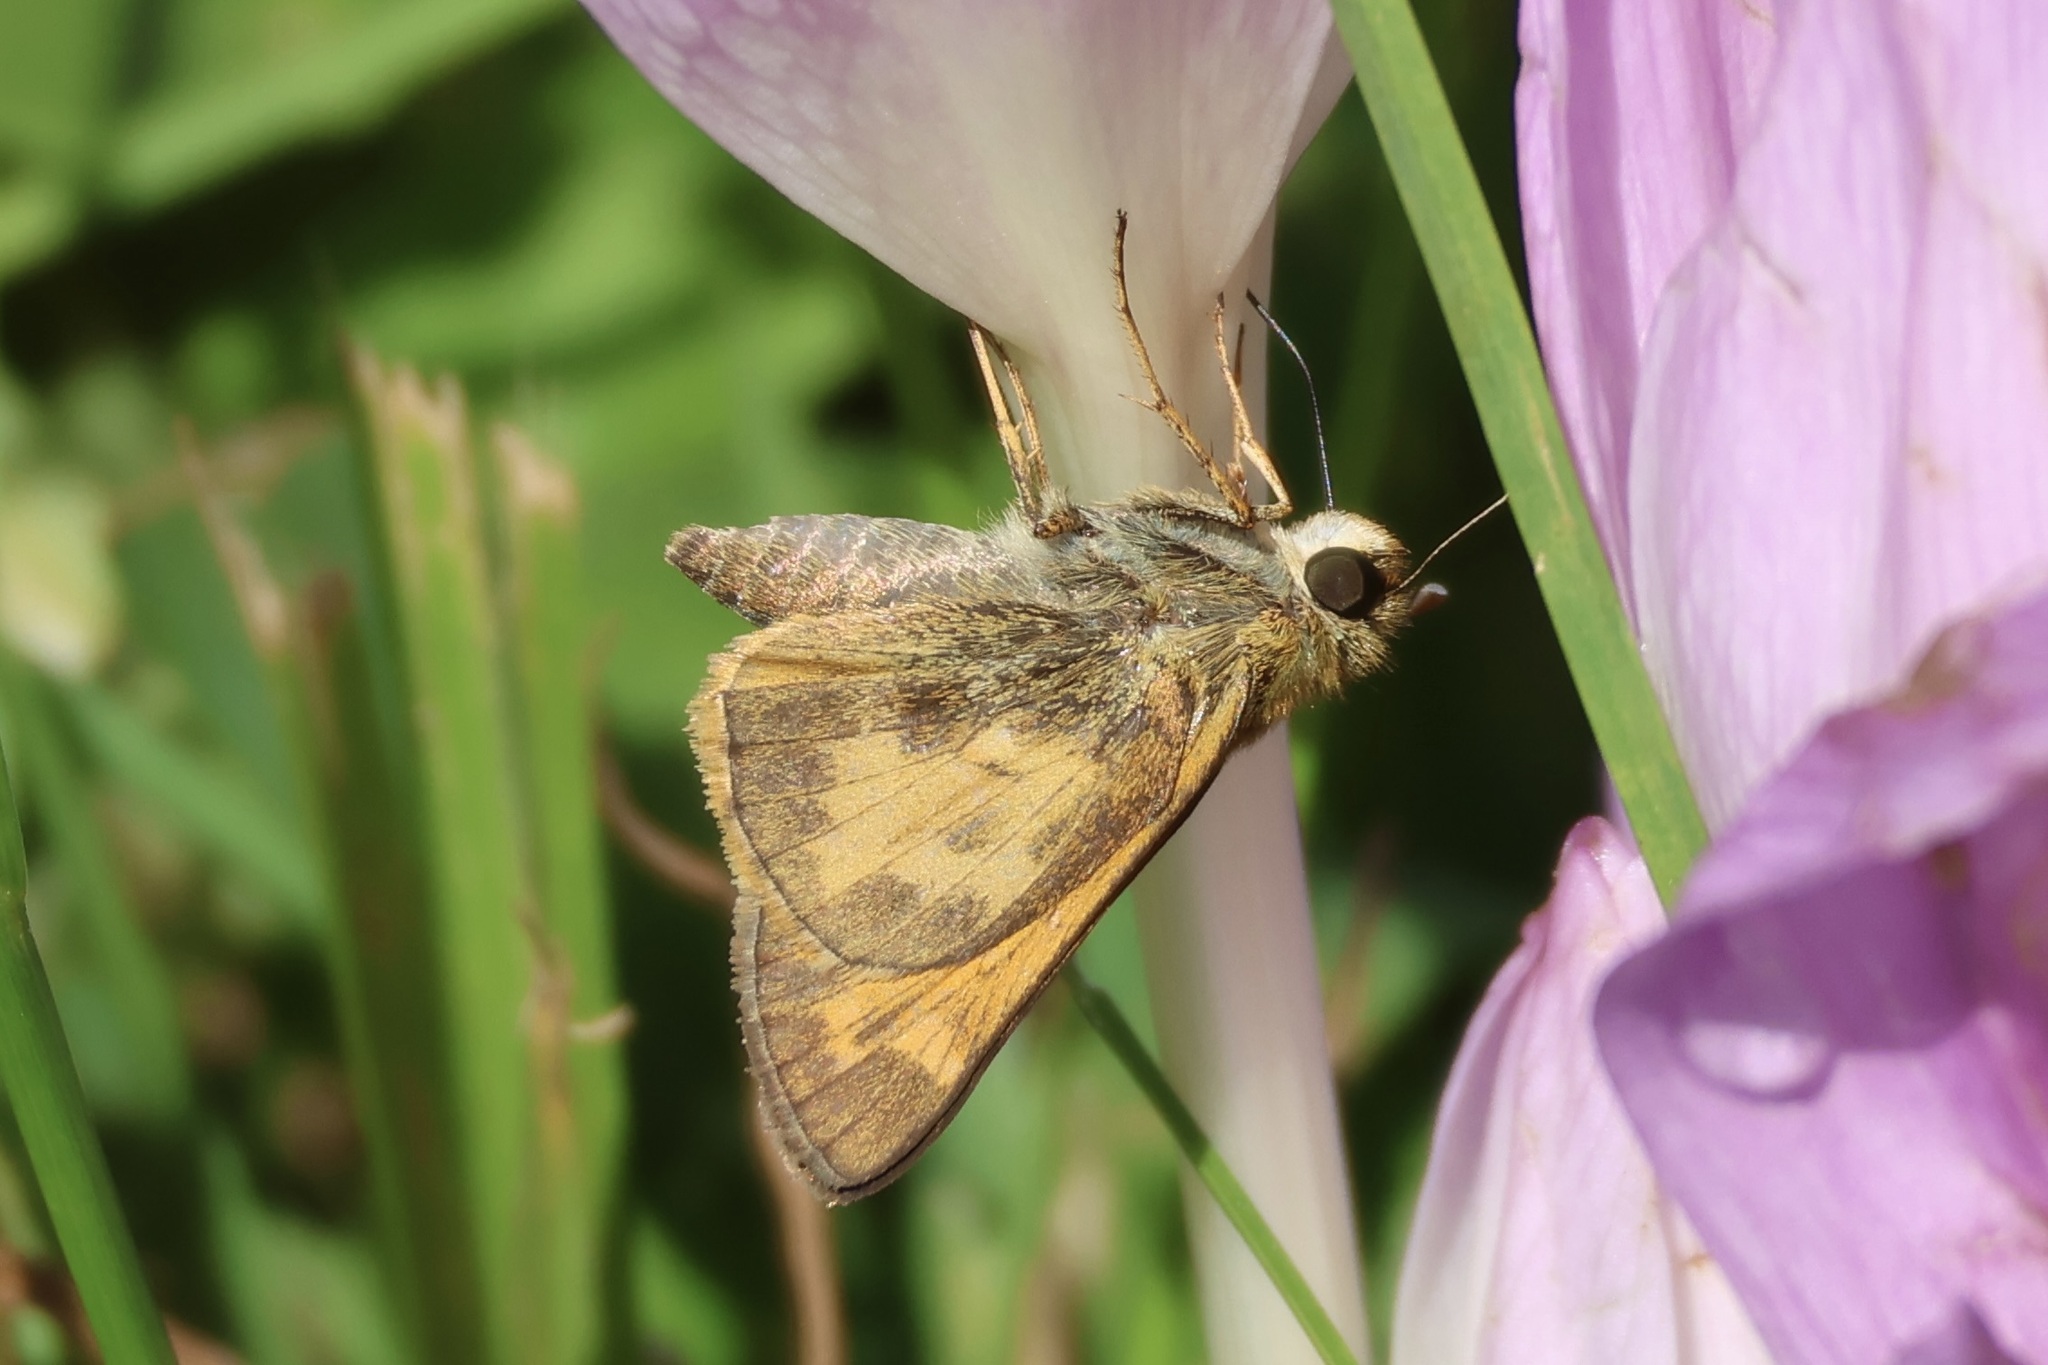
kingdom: Animalia
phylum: Arthropoda
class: Insecta
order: Lepidoptera
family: Hesperiidae
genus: Atalopedes
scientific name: Atalopedes
